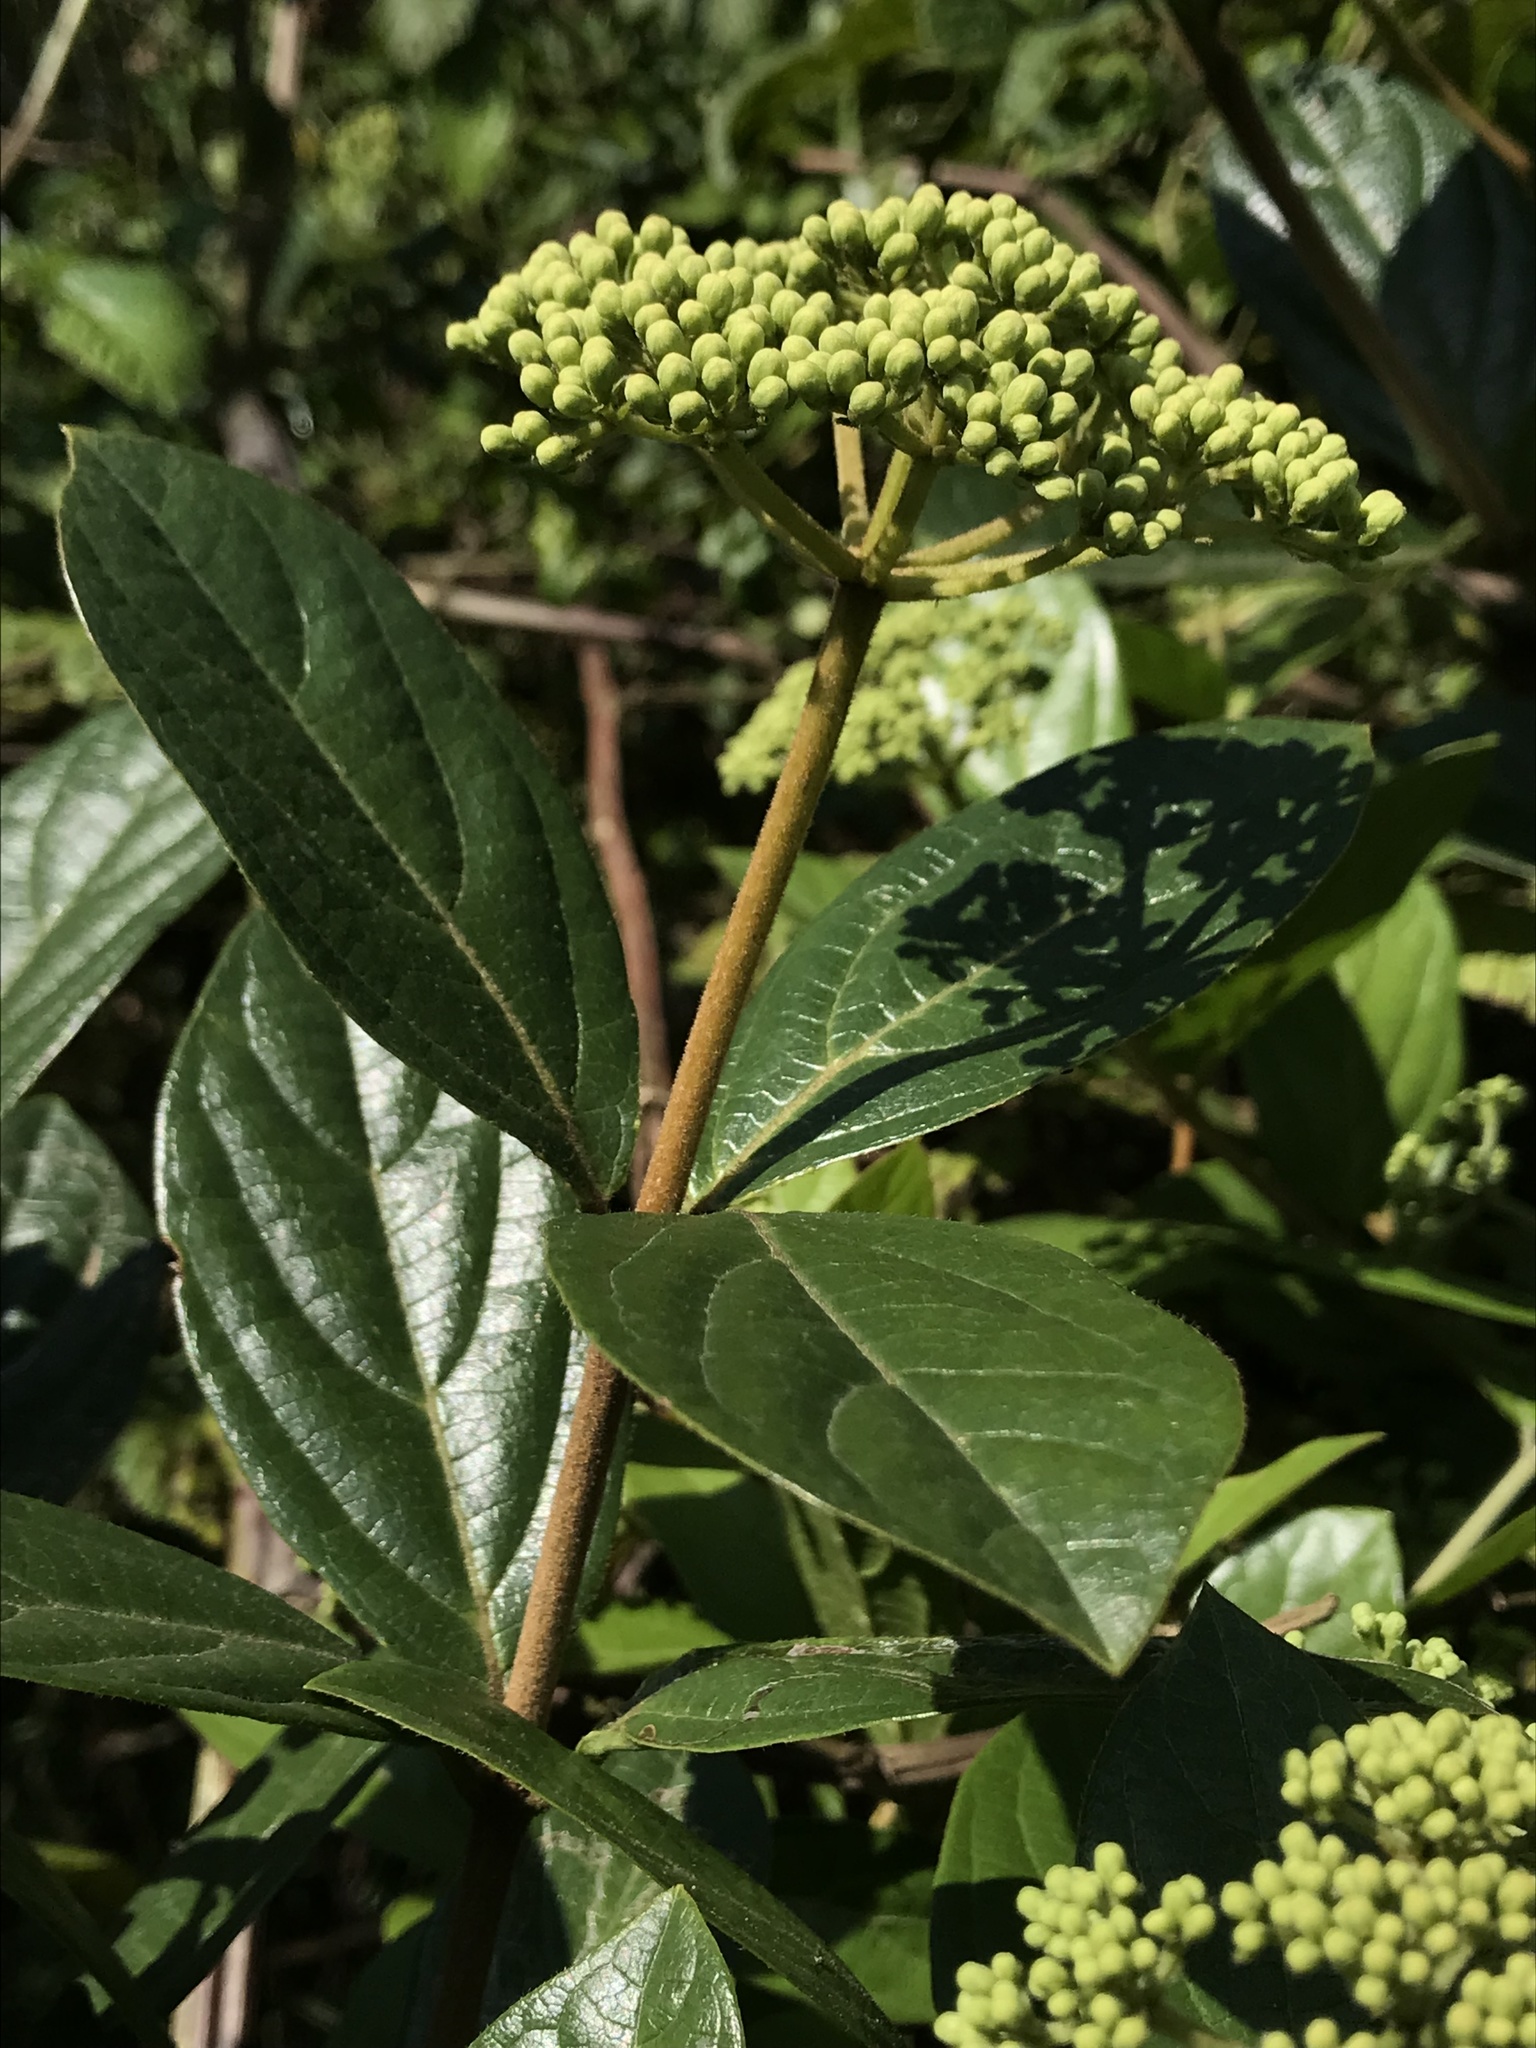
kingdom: Plantae
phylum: Tracheophyta
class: Magnoliopsida
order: Dipsacales
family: Viburnaceae
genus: Viburnum
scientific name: Viburnum triphyllum
